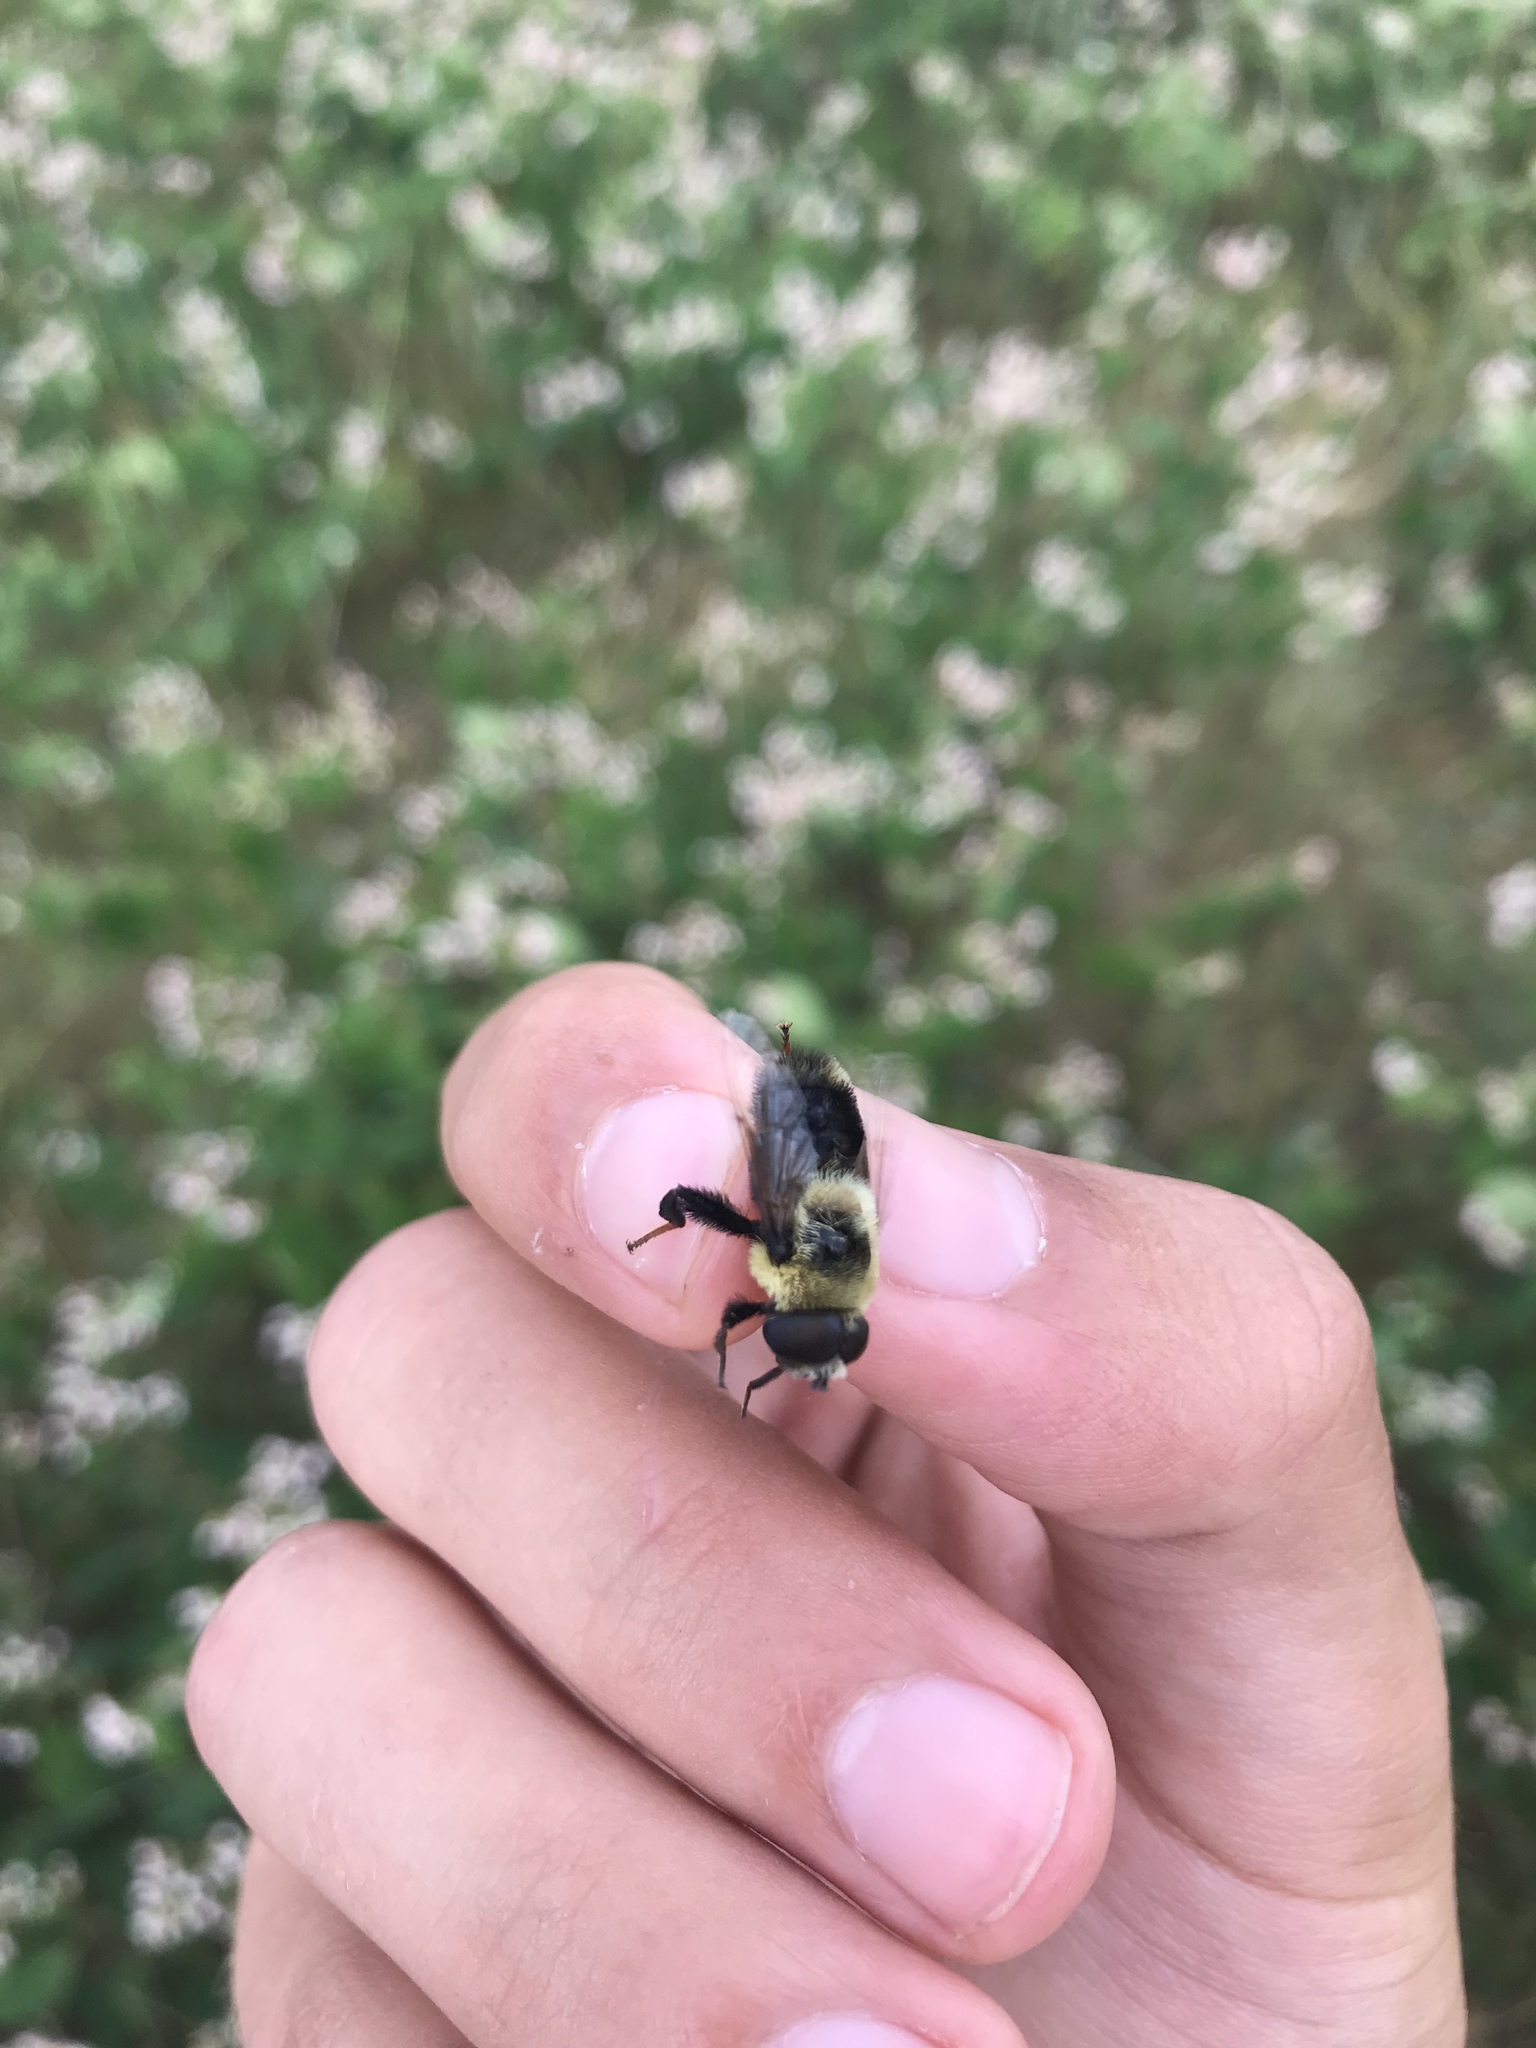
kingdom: Animalia
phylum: Arthropoda
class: Insecta
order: Diptera
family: Syrphidae
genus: Eristalis
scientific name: Eristalis flavipes
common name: Orange-legged drone fly
